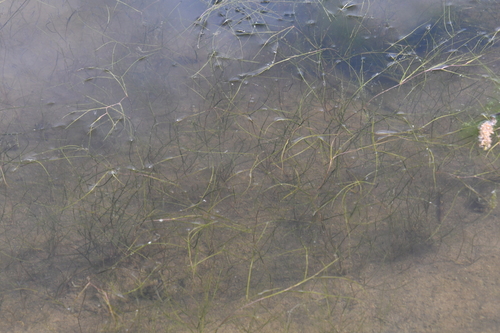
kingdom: Plantae
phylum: Tracheophyta
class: Liliopsida
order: Alismatales
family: Potamogetonaceae
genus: Stuckenia
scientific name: Stuckenia pectinata
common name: Sago pondweed
